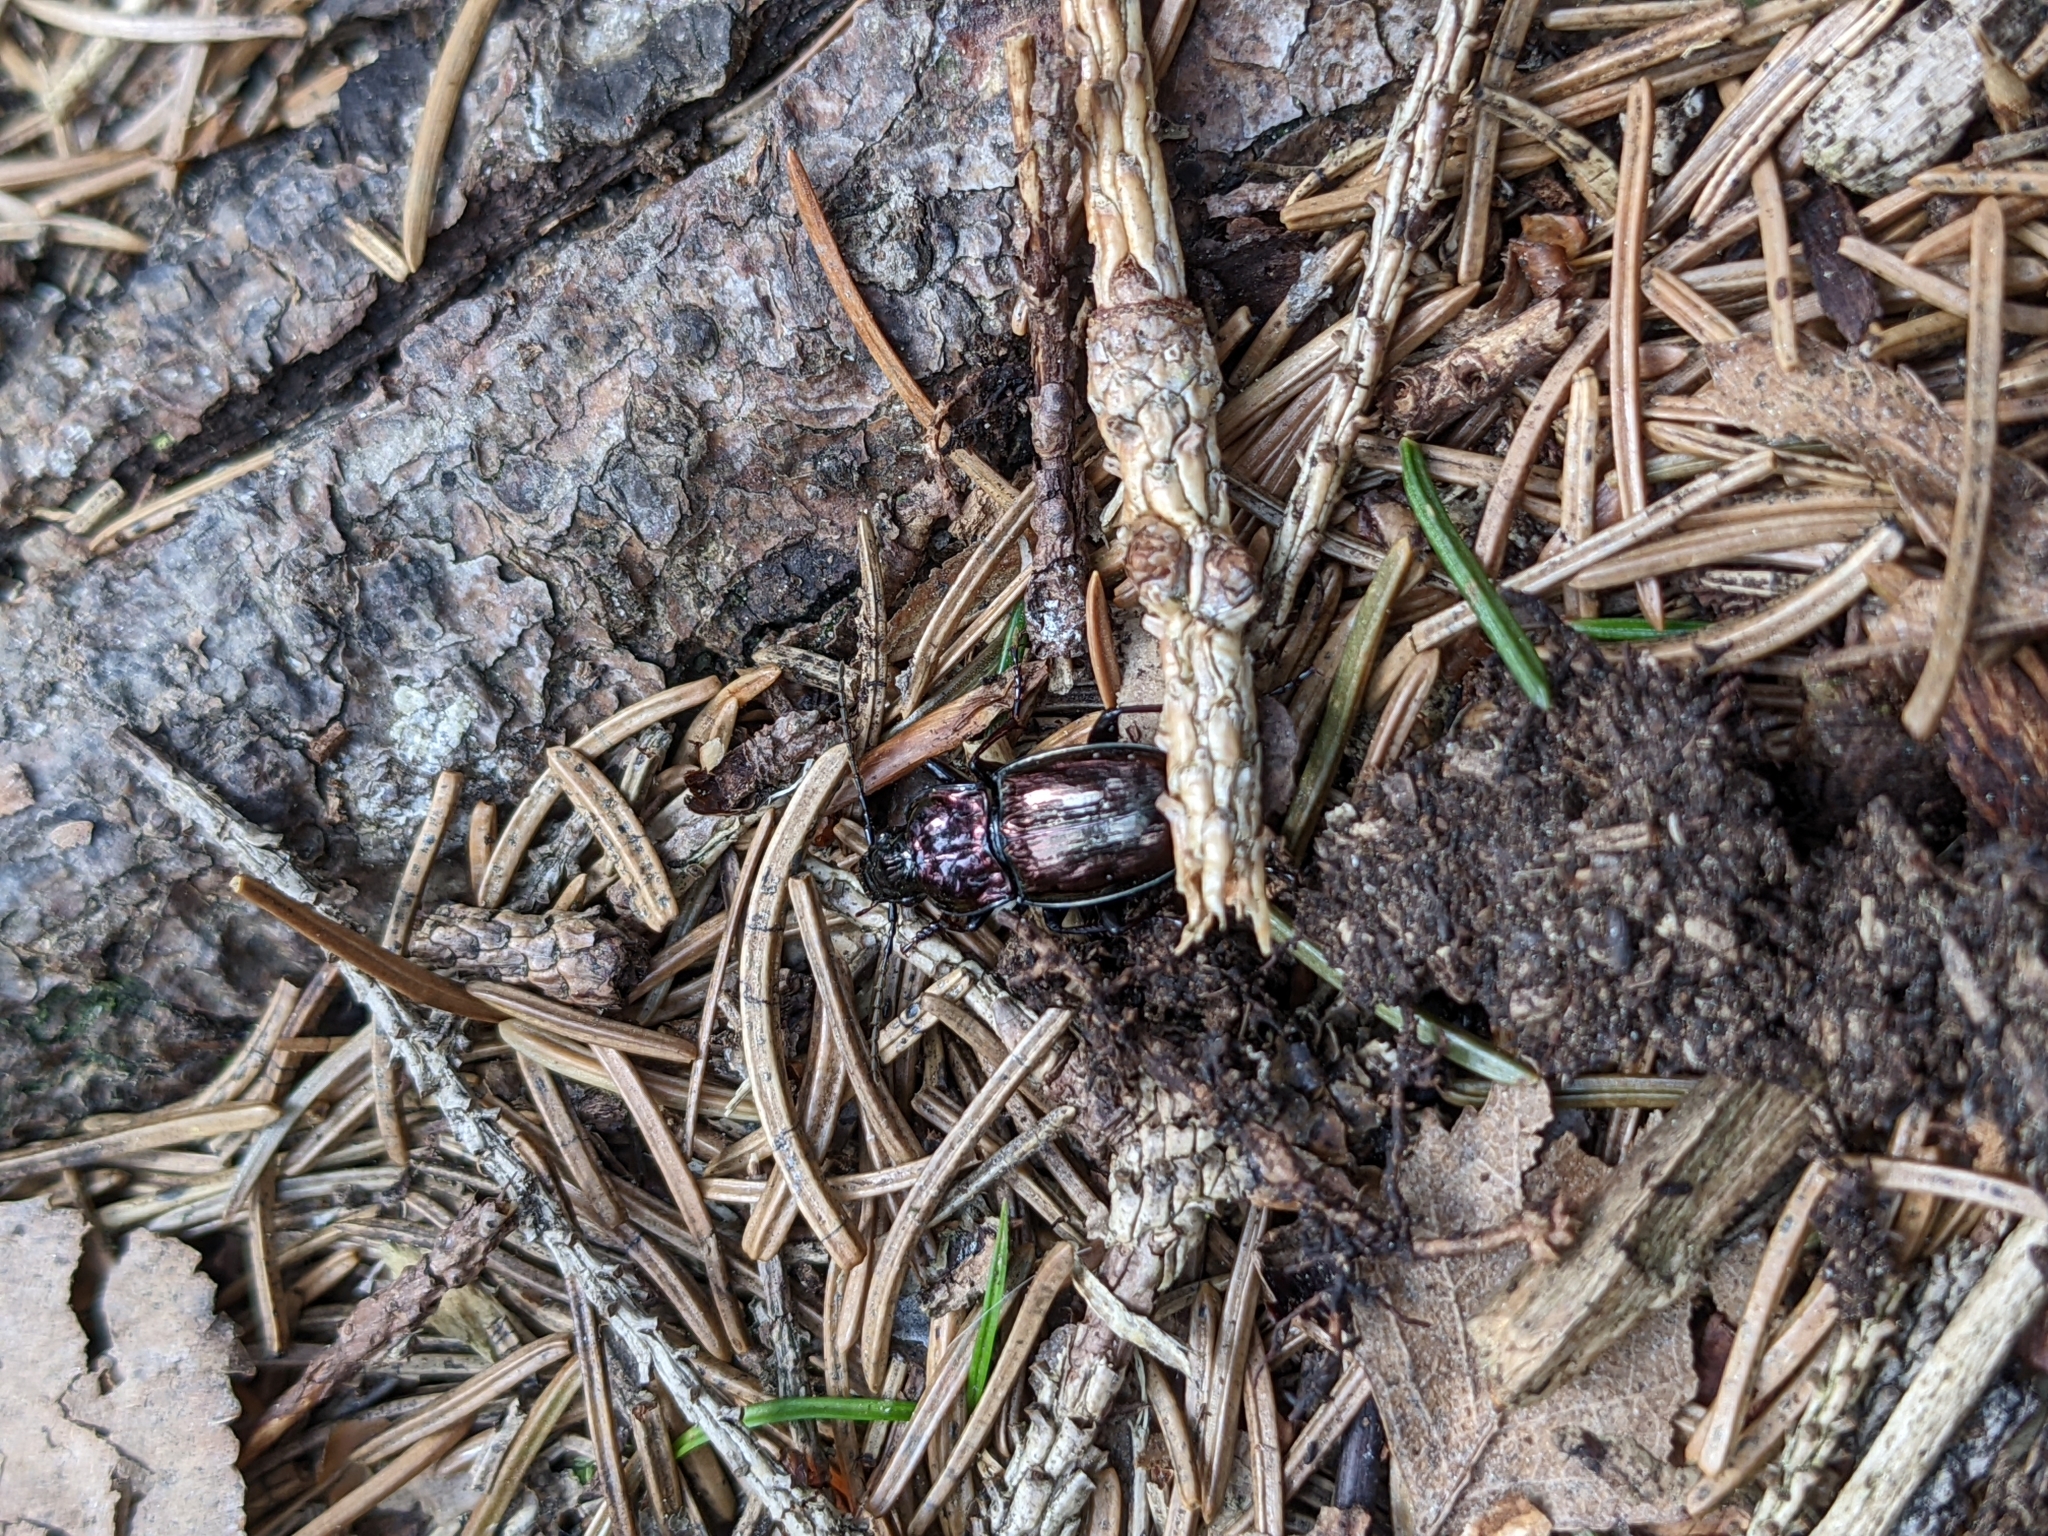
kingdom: Animalia
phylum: Arthropoda
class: Insecta
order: Coleoptera
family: Carabidae
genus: Pterostichus
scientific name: Pterostichus burmeisteri
